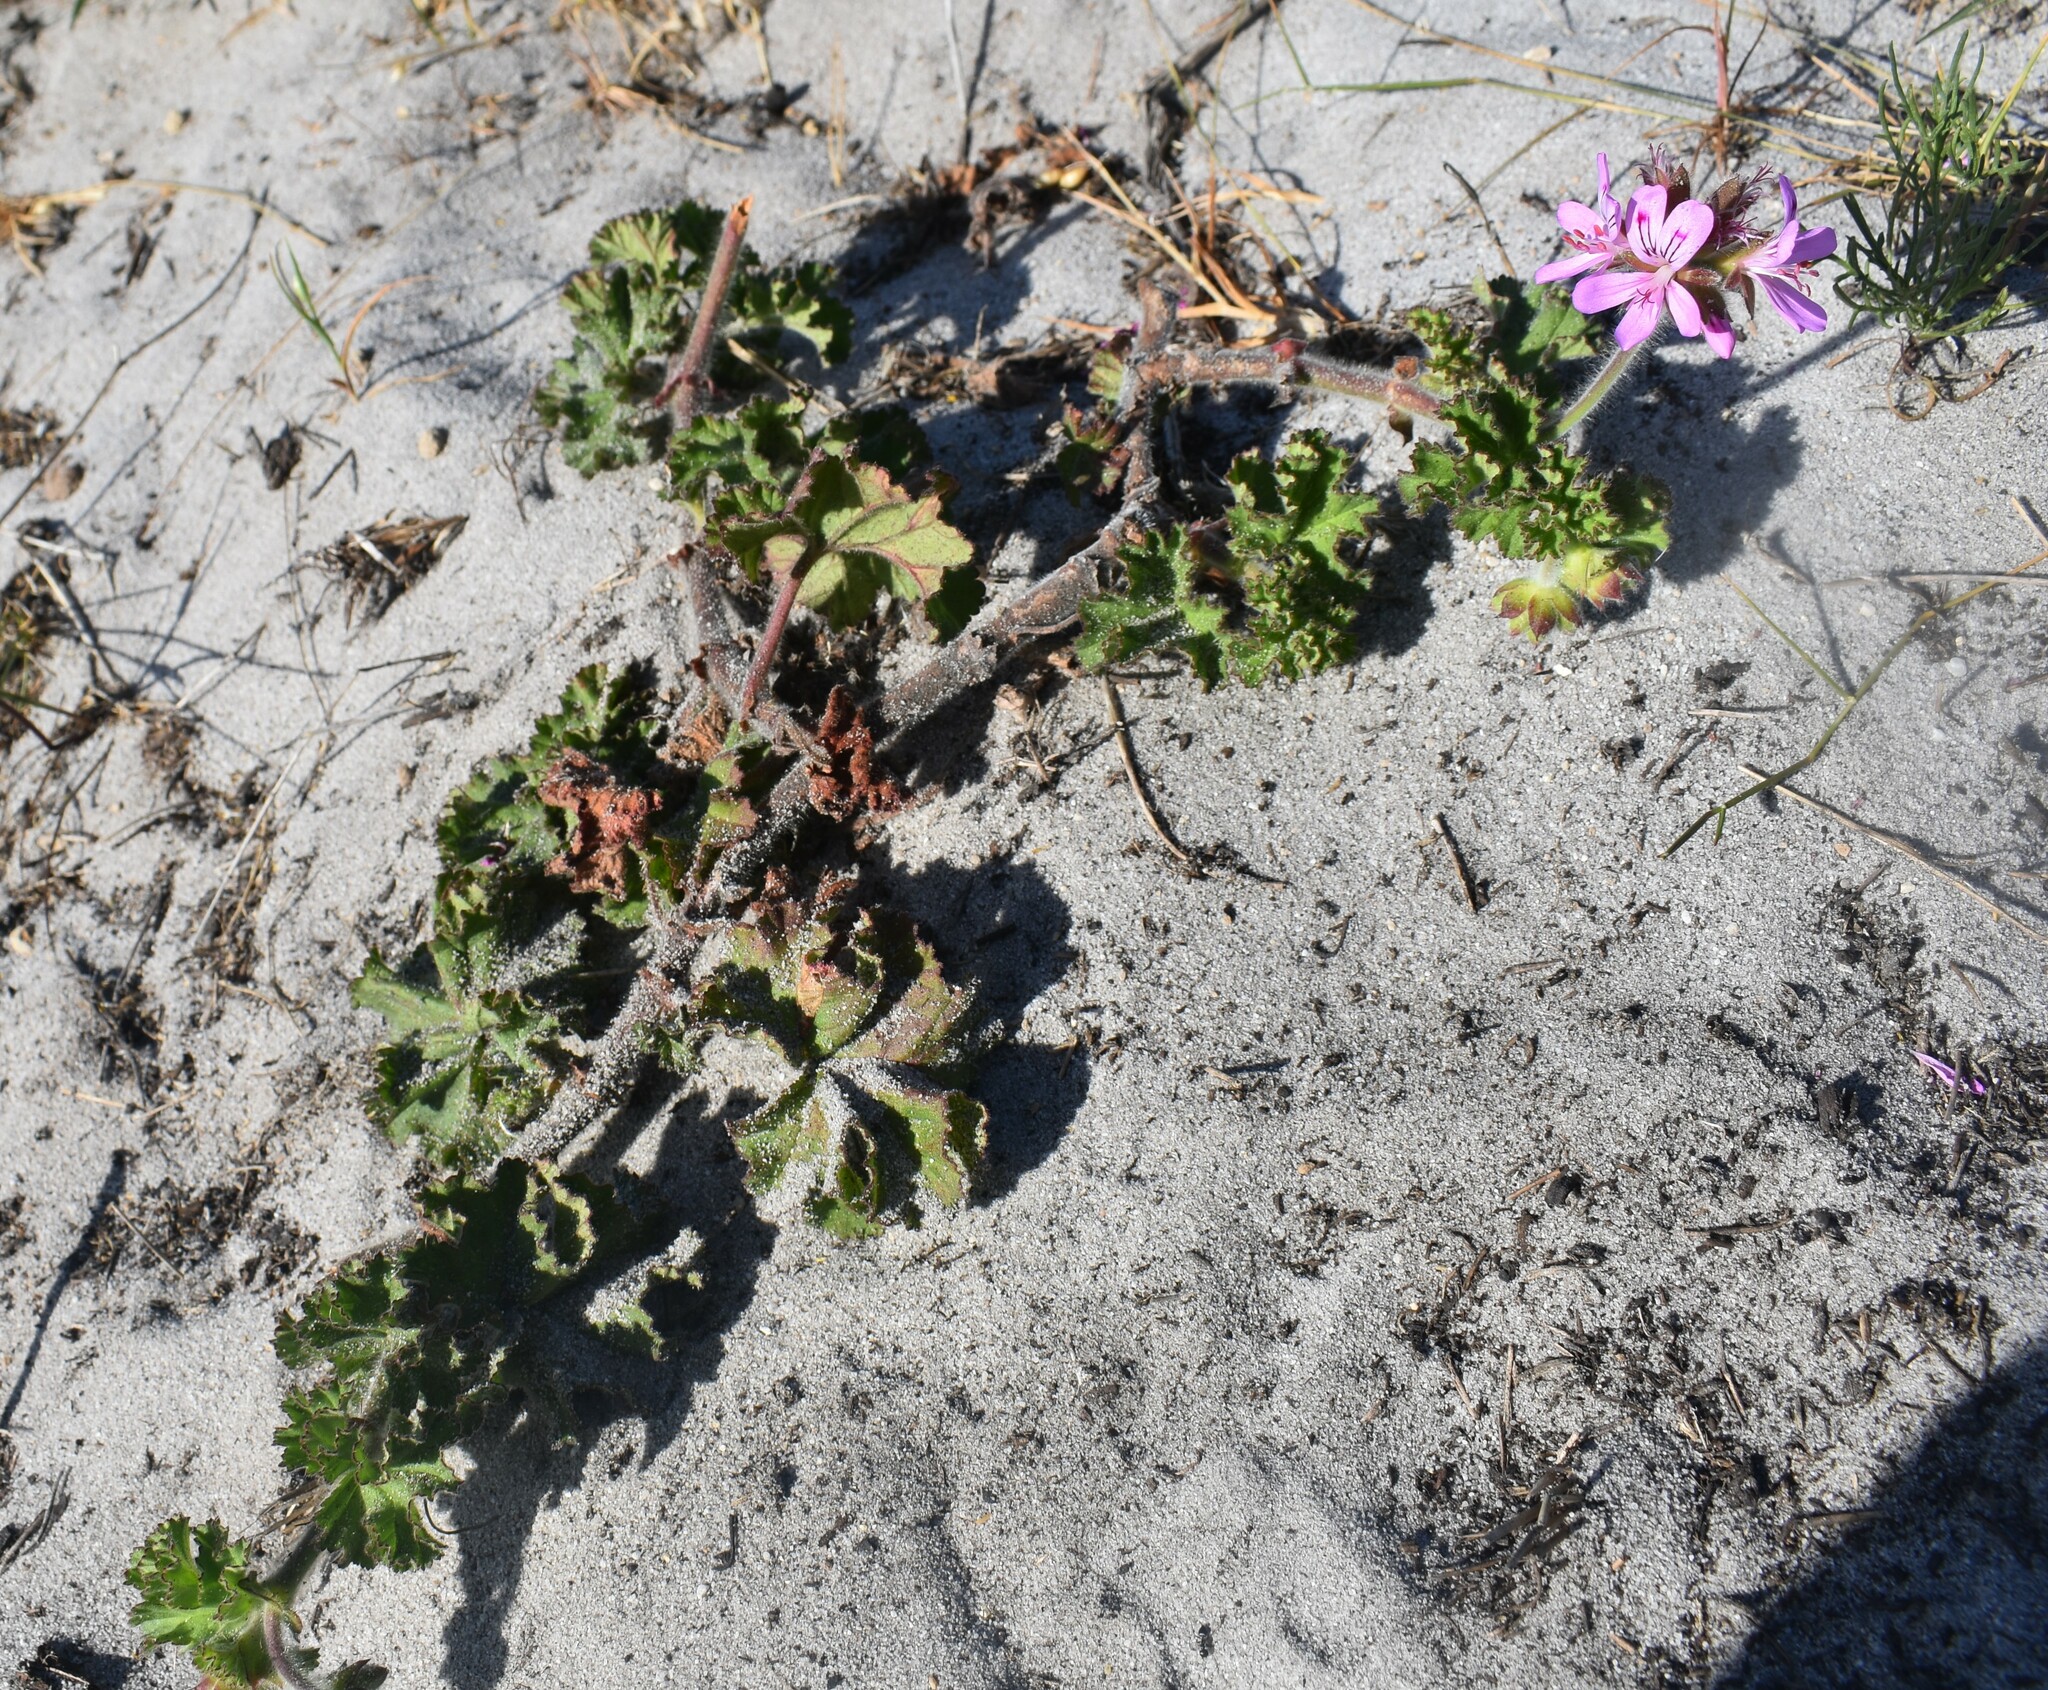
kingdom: Plantae
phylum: Tracheophyta
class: Magnoliopsida
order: Geraniales
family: Geraniaceae
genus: Pelargonium
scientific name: Pelargonium capitatum
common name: Rose scented geranium
